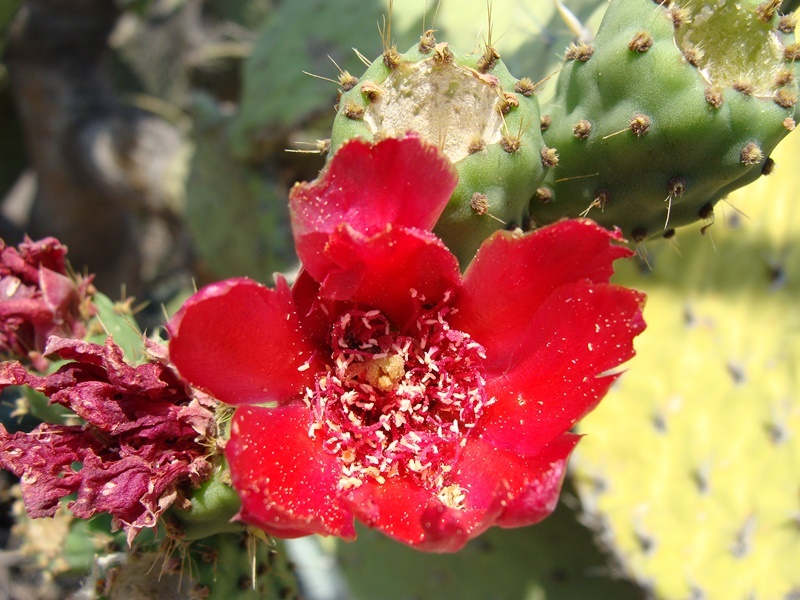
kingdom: Plantae
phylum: Tracheophyta
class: Magnoliopsida
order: Caryophyllales
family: Cactaceae
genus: Opuntia
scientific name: Opuntia depressa
